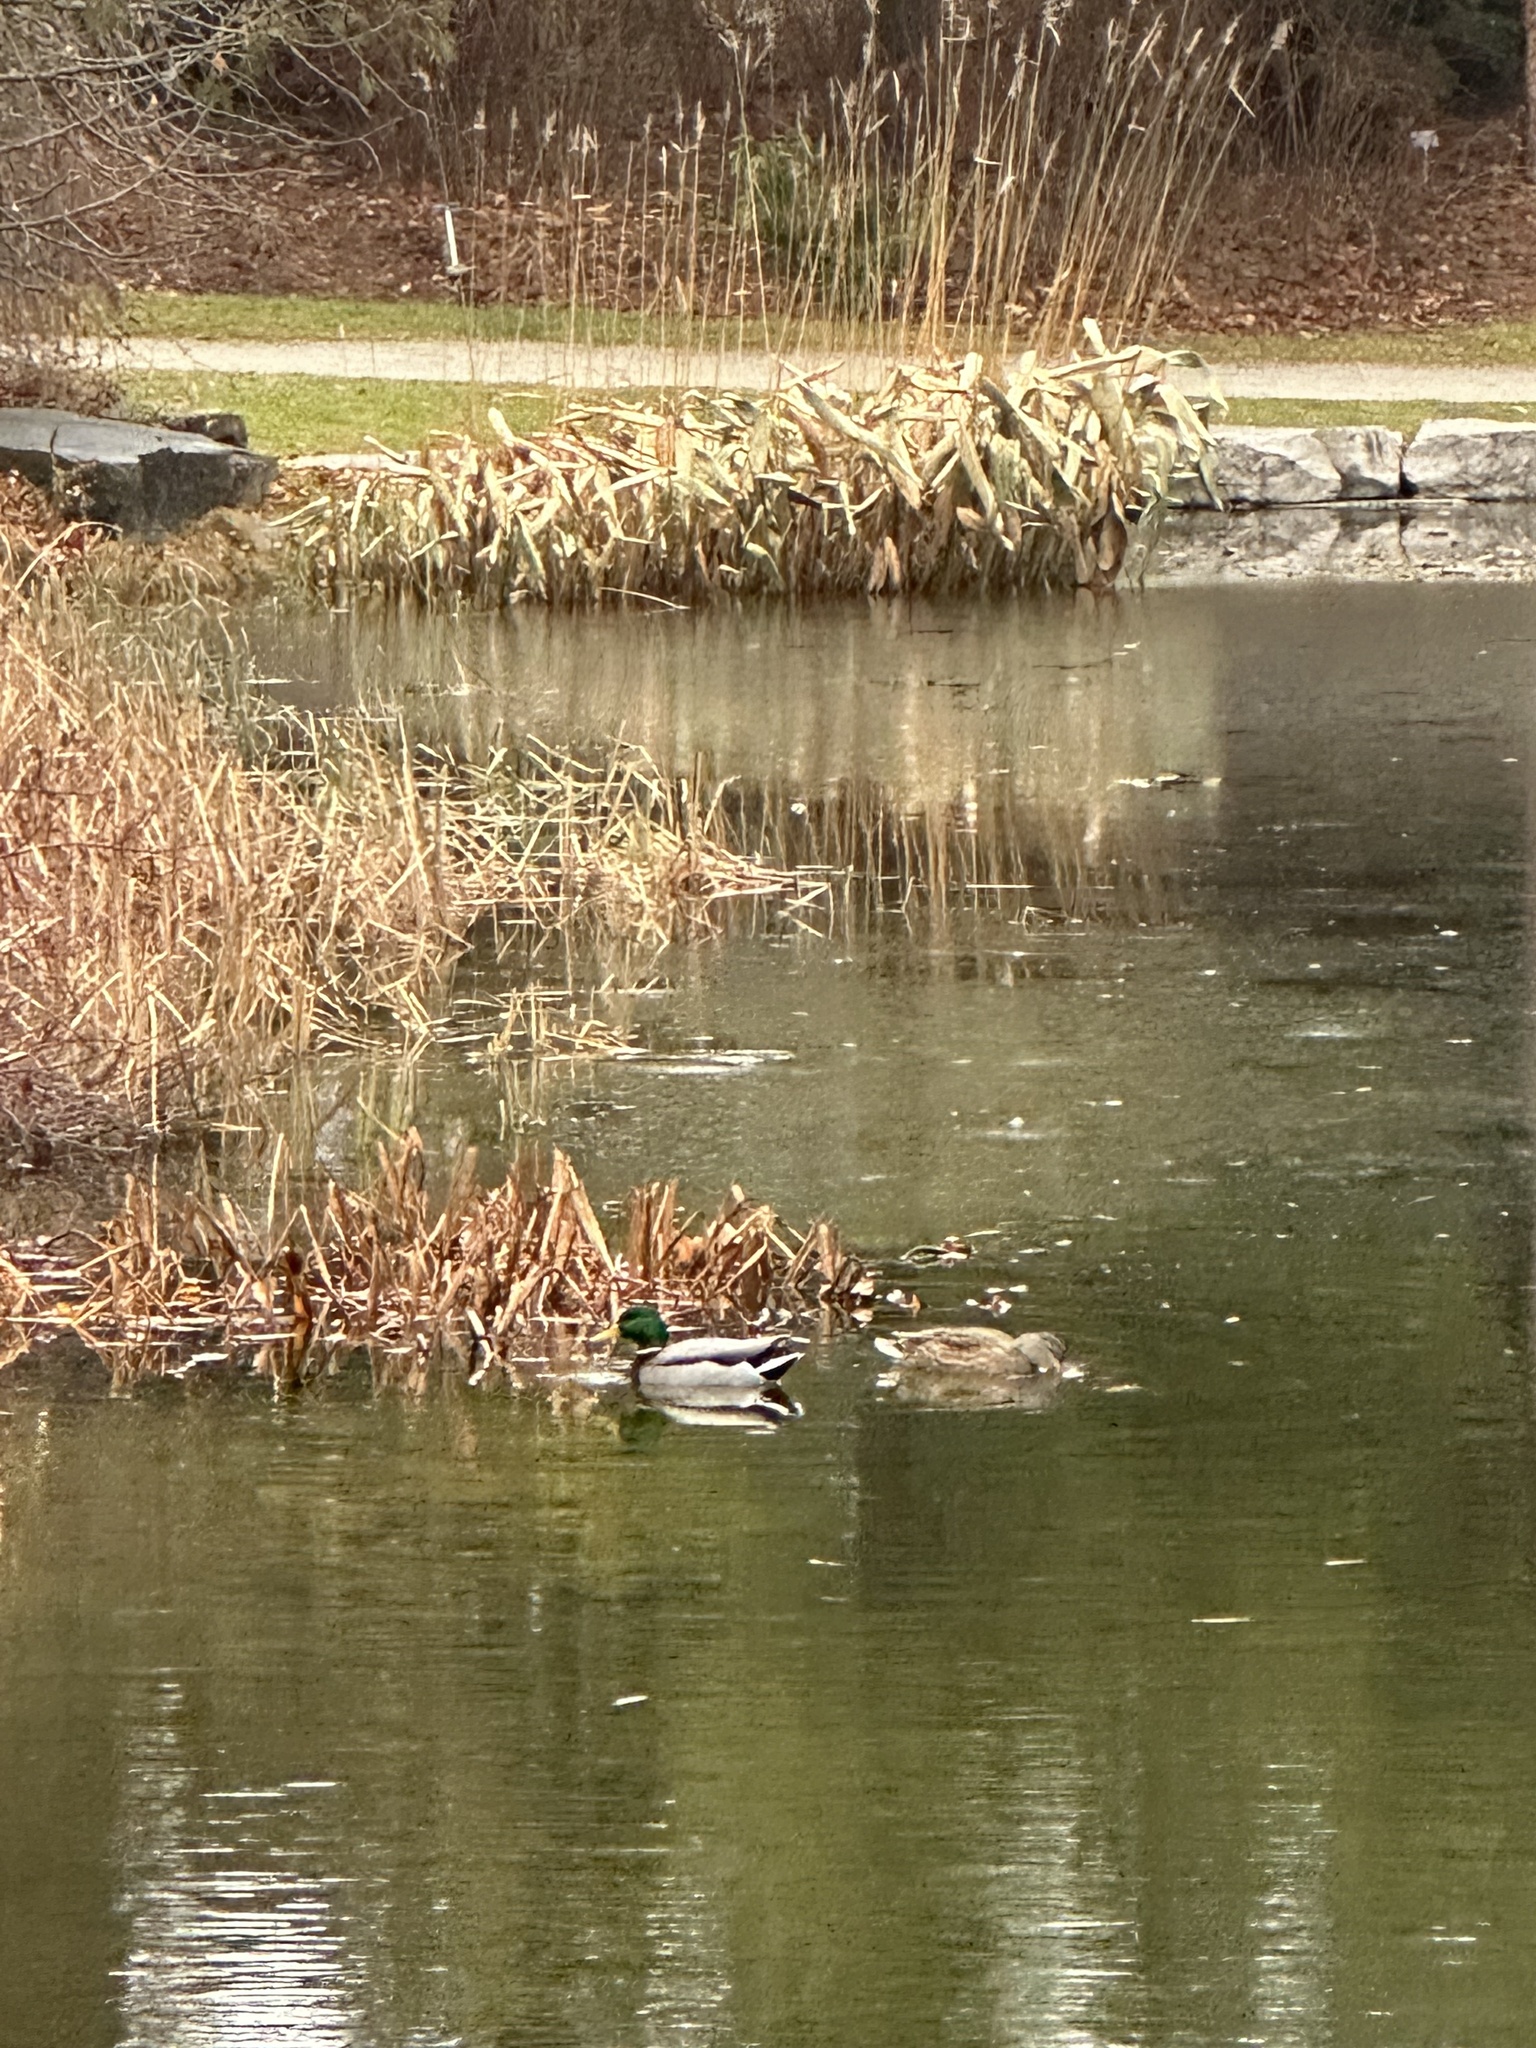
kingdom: Animalia
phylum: Chordata
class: Aves
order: Anseriformes
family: Anatidae
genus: Anas
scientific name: Anas platyrhynchos
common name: Mallard
